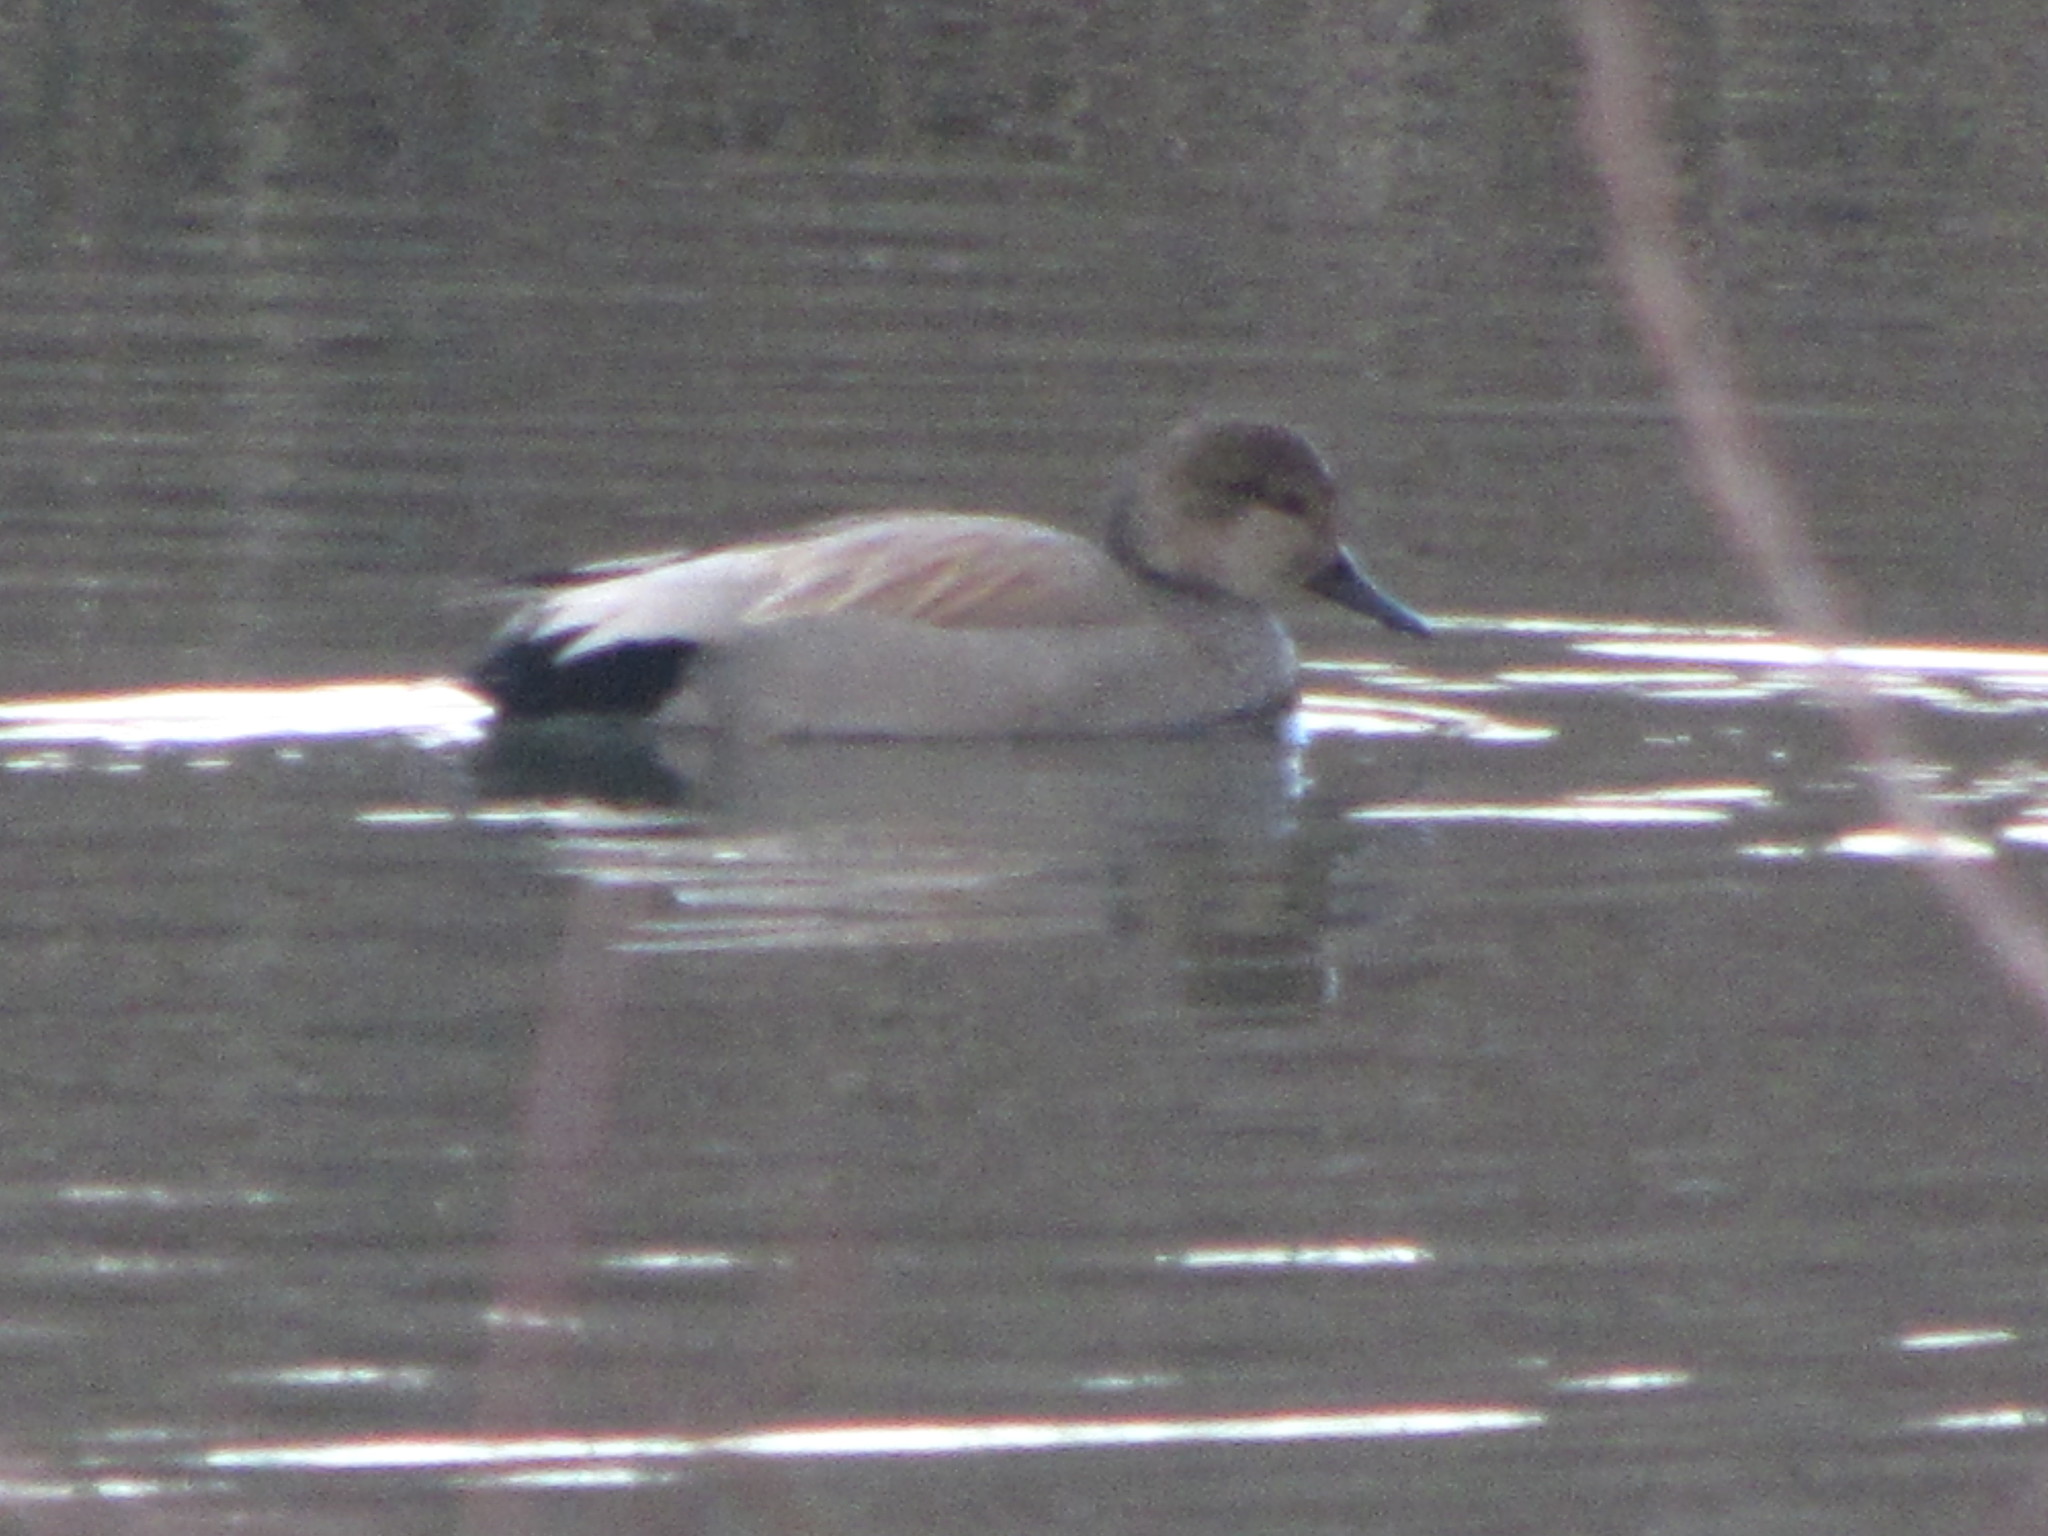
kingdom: Animalia
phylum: Chordata
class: Aves
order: Anseriformes
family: Anatidae
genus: Mareca
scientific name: Mareca strepera
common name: Gadwall
